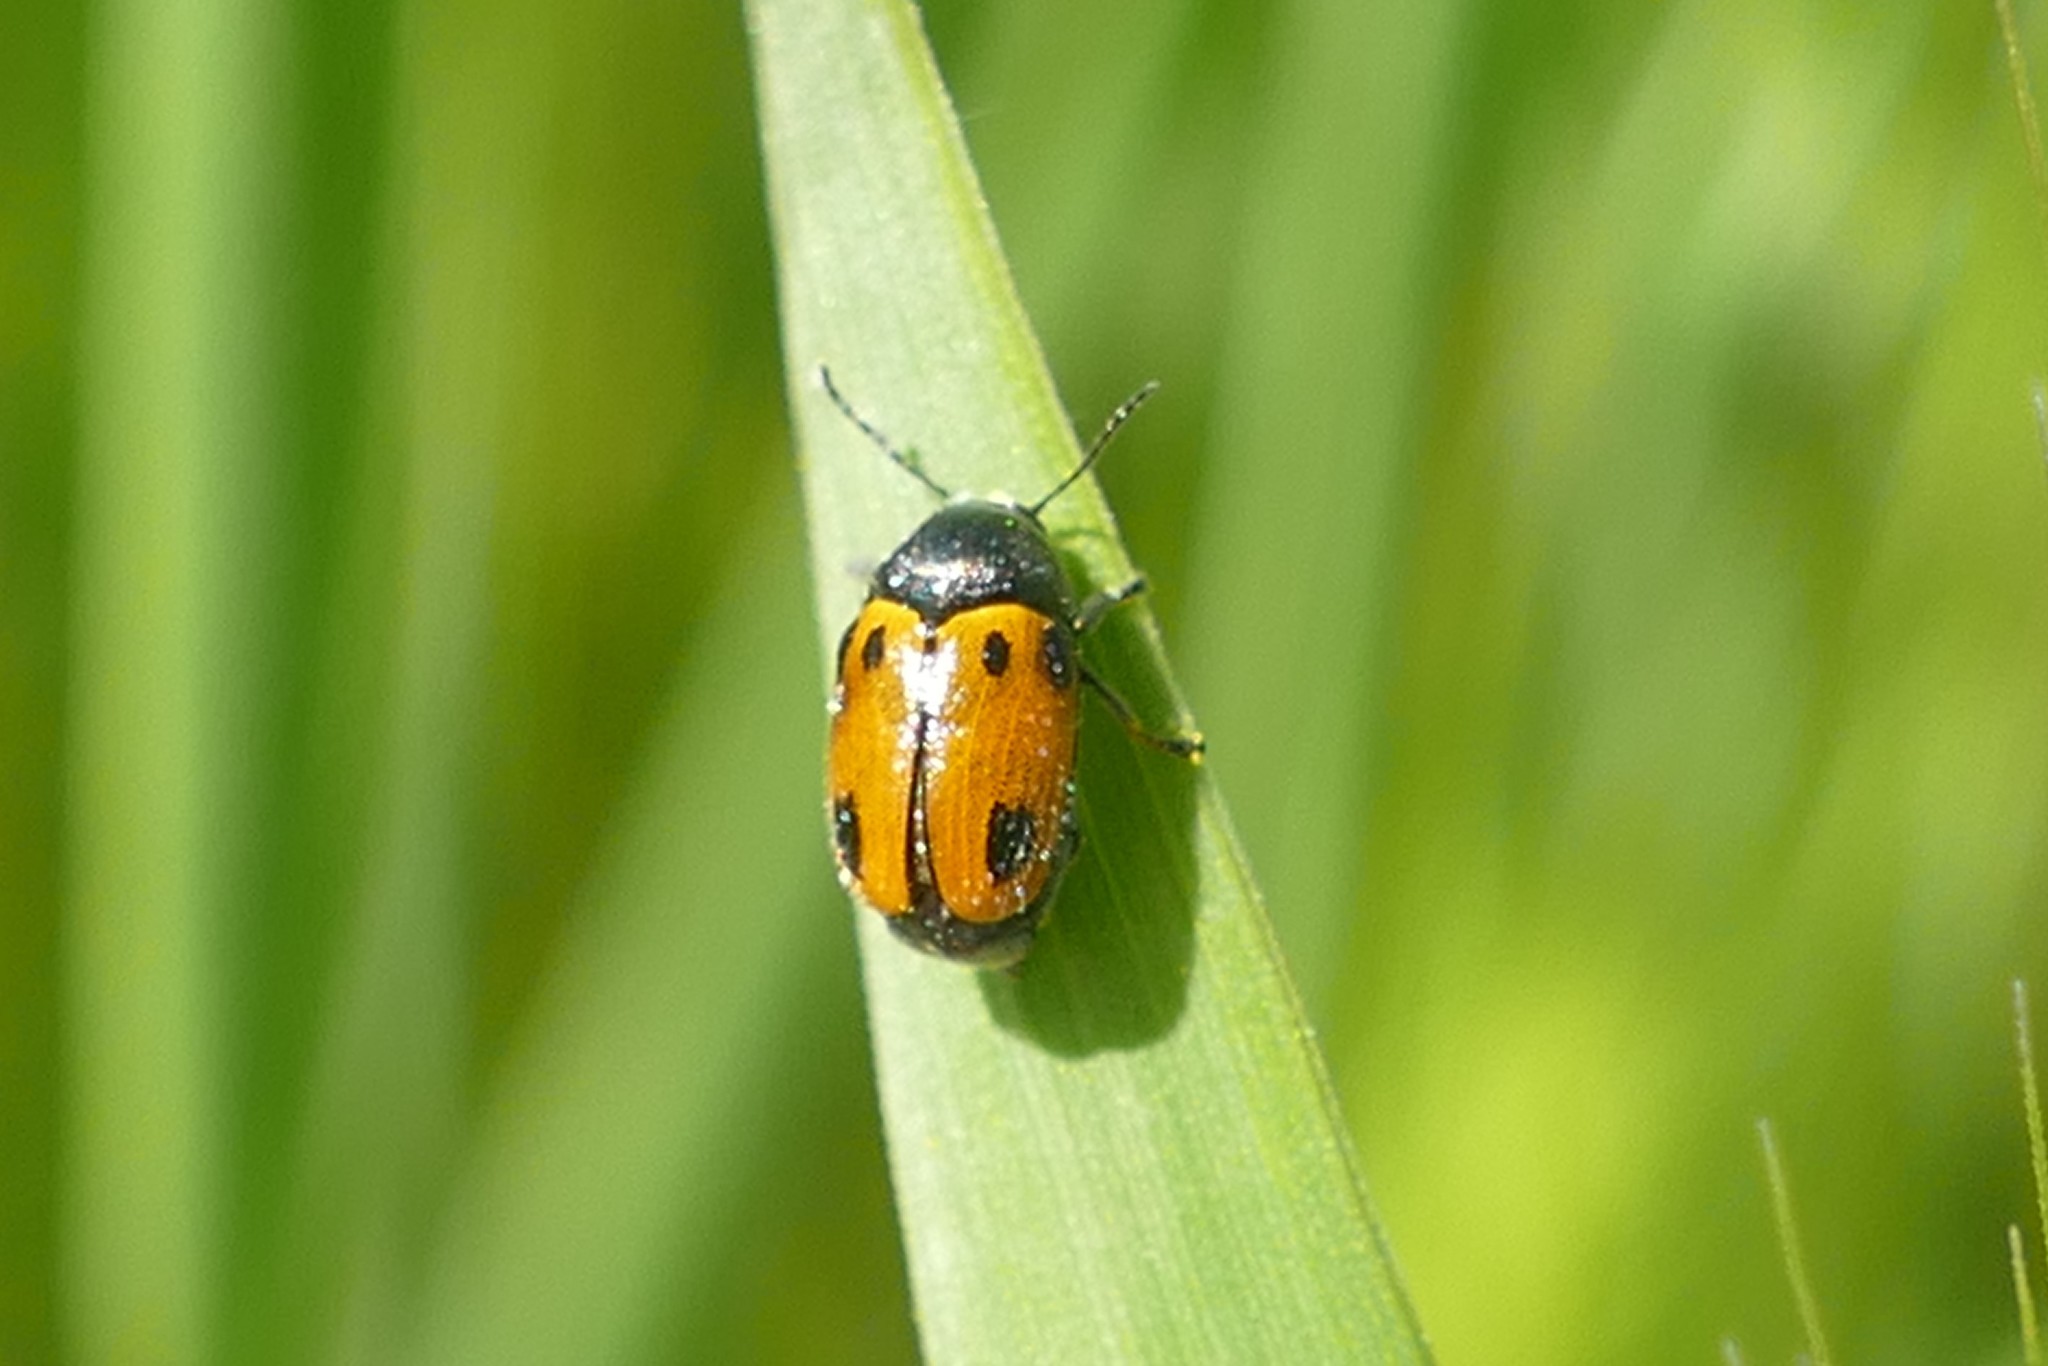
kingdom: Animalia
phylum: Arthropoda
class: Insecta
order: Coleoptera
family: Chrysomelidae
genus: Cryptocephalus
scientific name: Cryptocephalus rugicollis
